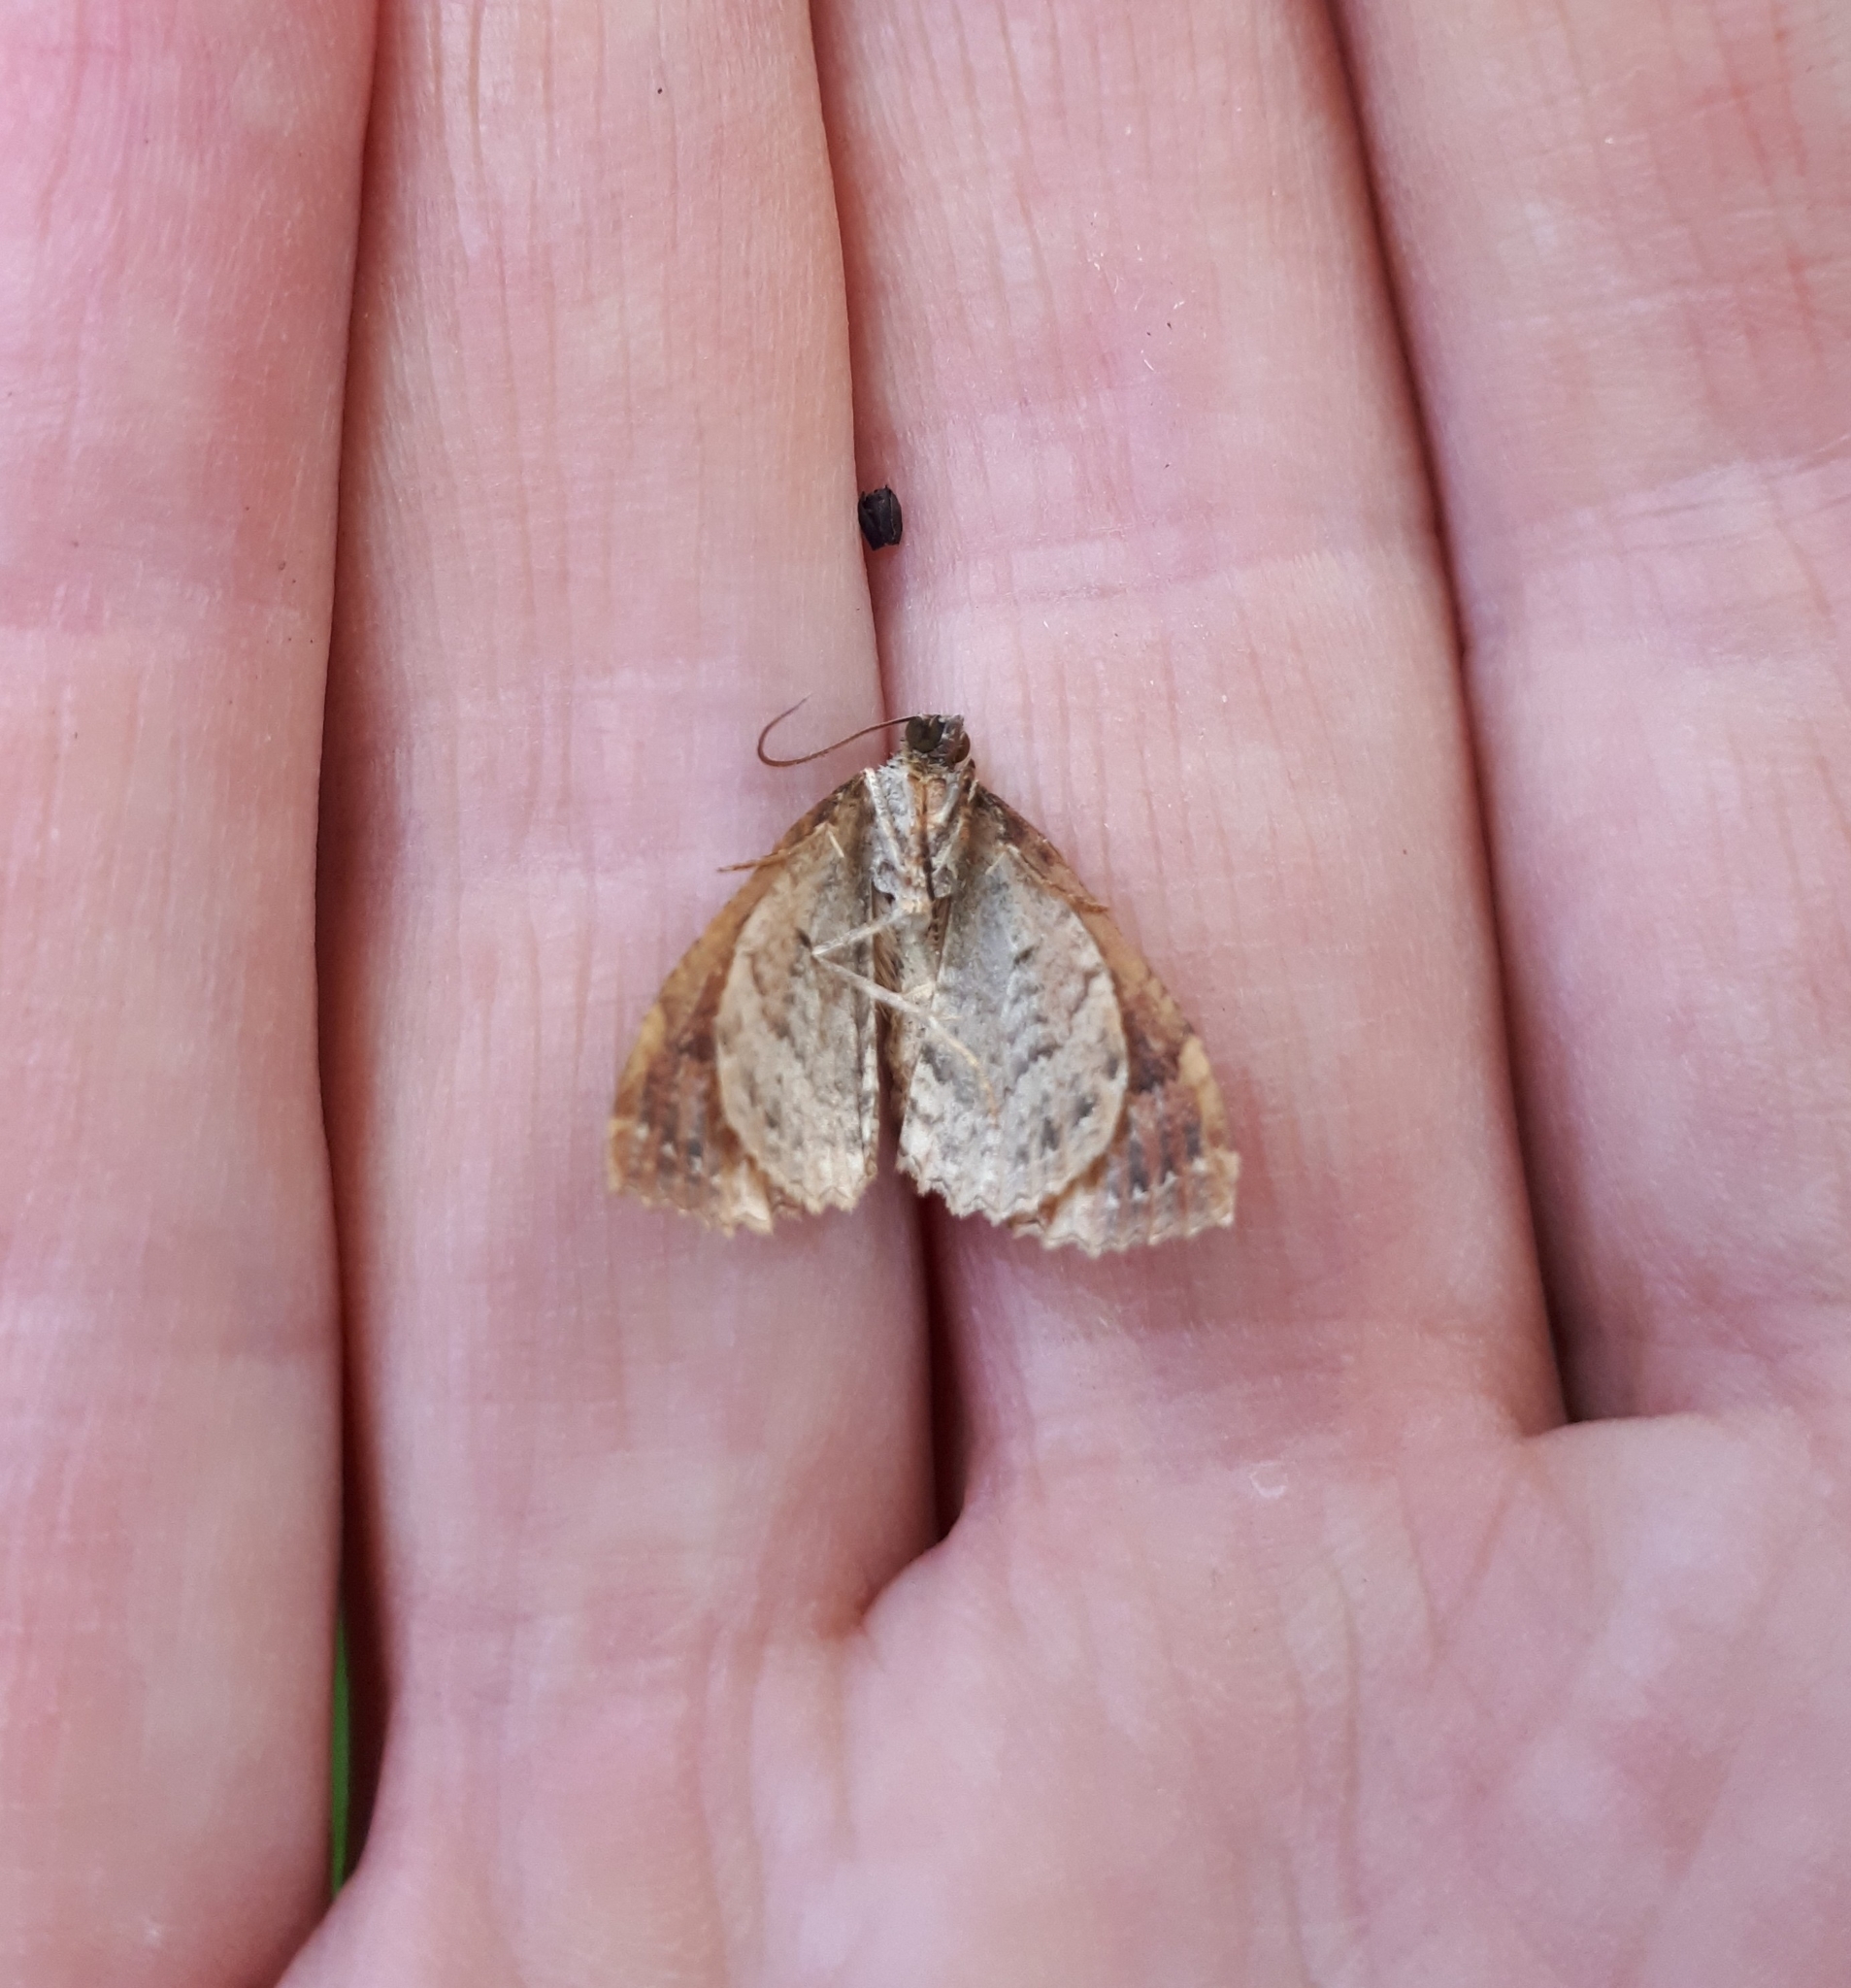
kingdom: Animalia
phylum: Arthropoda
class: Insecta
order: Lepidoptera
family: Geometridae
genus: Austrocidaria
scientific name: Austrocidaria similata
